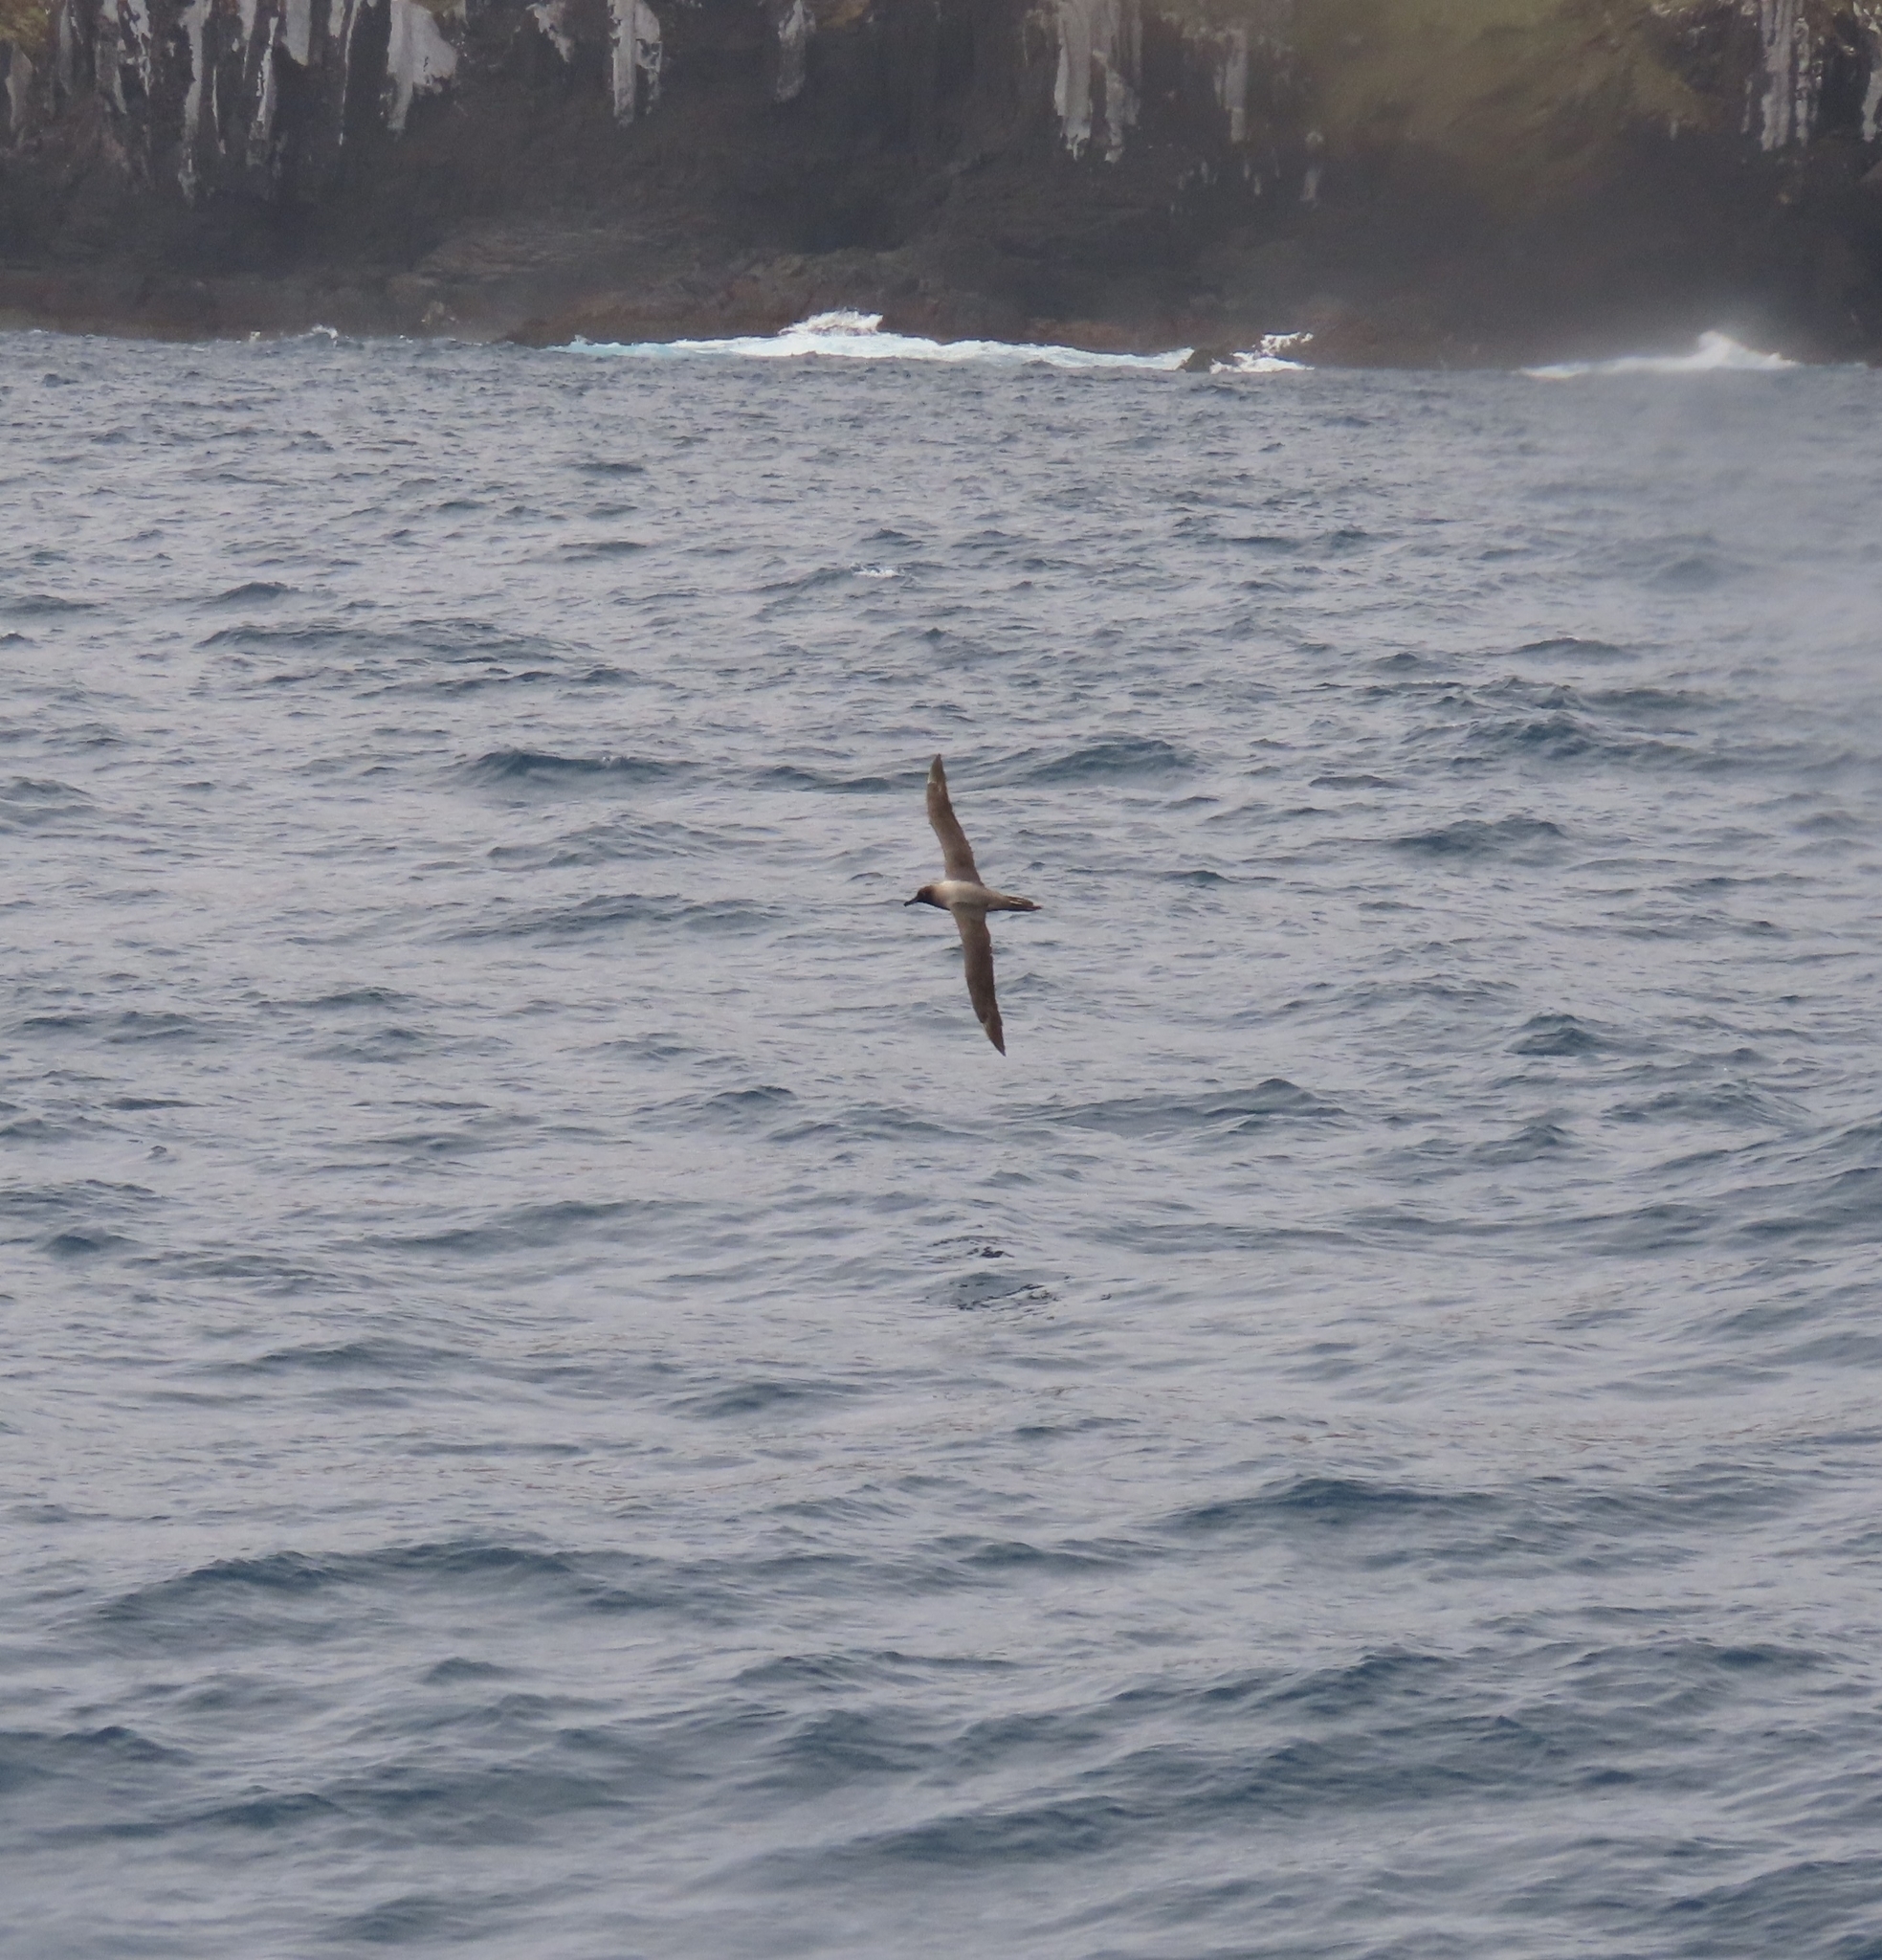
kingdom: Animalia
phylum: Chordata
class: Aves
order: Procellariiformes
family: Diomedeidae
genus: Phoebetria
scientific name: Phoebetria palpebrata
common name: Light-mantled albatross
